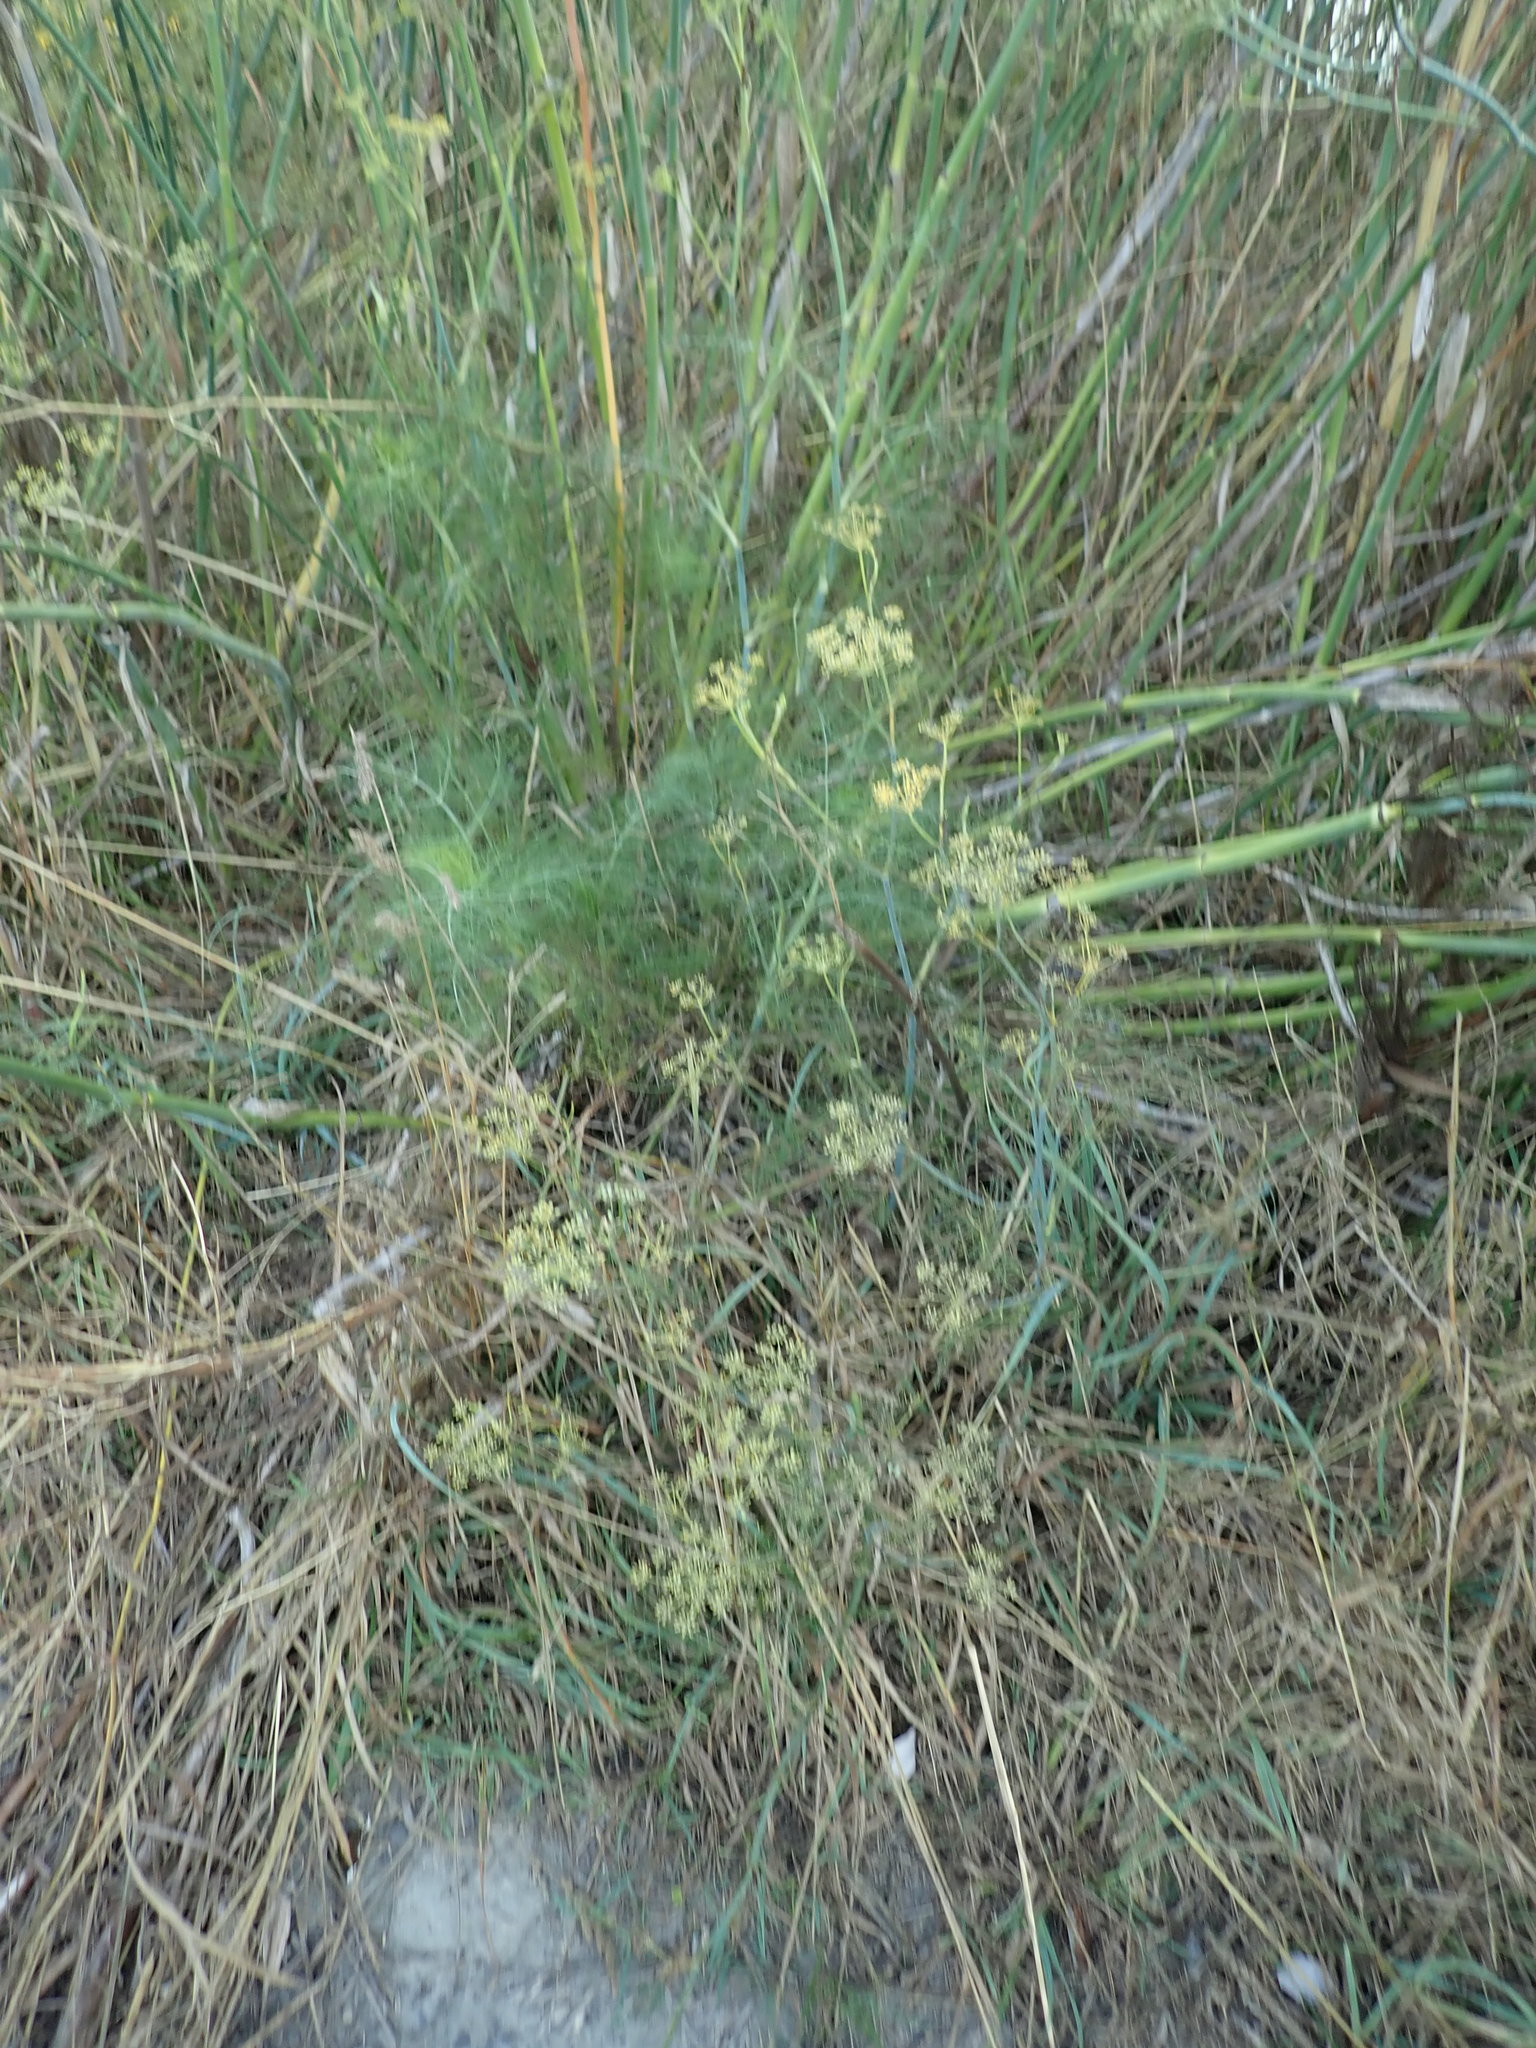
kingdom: Plantae
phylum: Tracheophyta
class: Magnoliopsida
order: Apiales
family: Apiaceae
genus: Foeniculum
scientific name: Foeniculum vulgare
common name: Fennel
